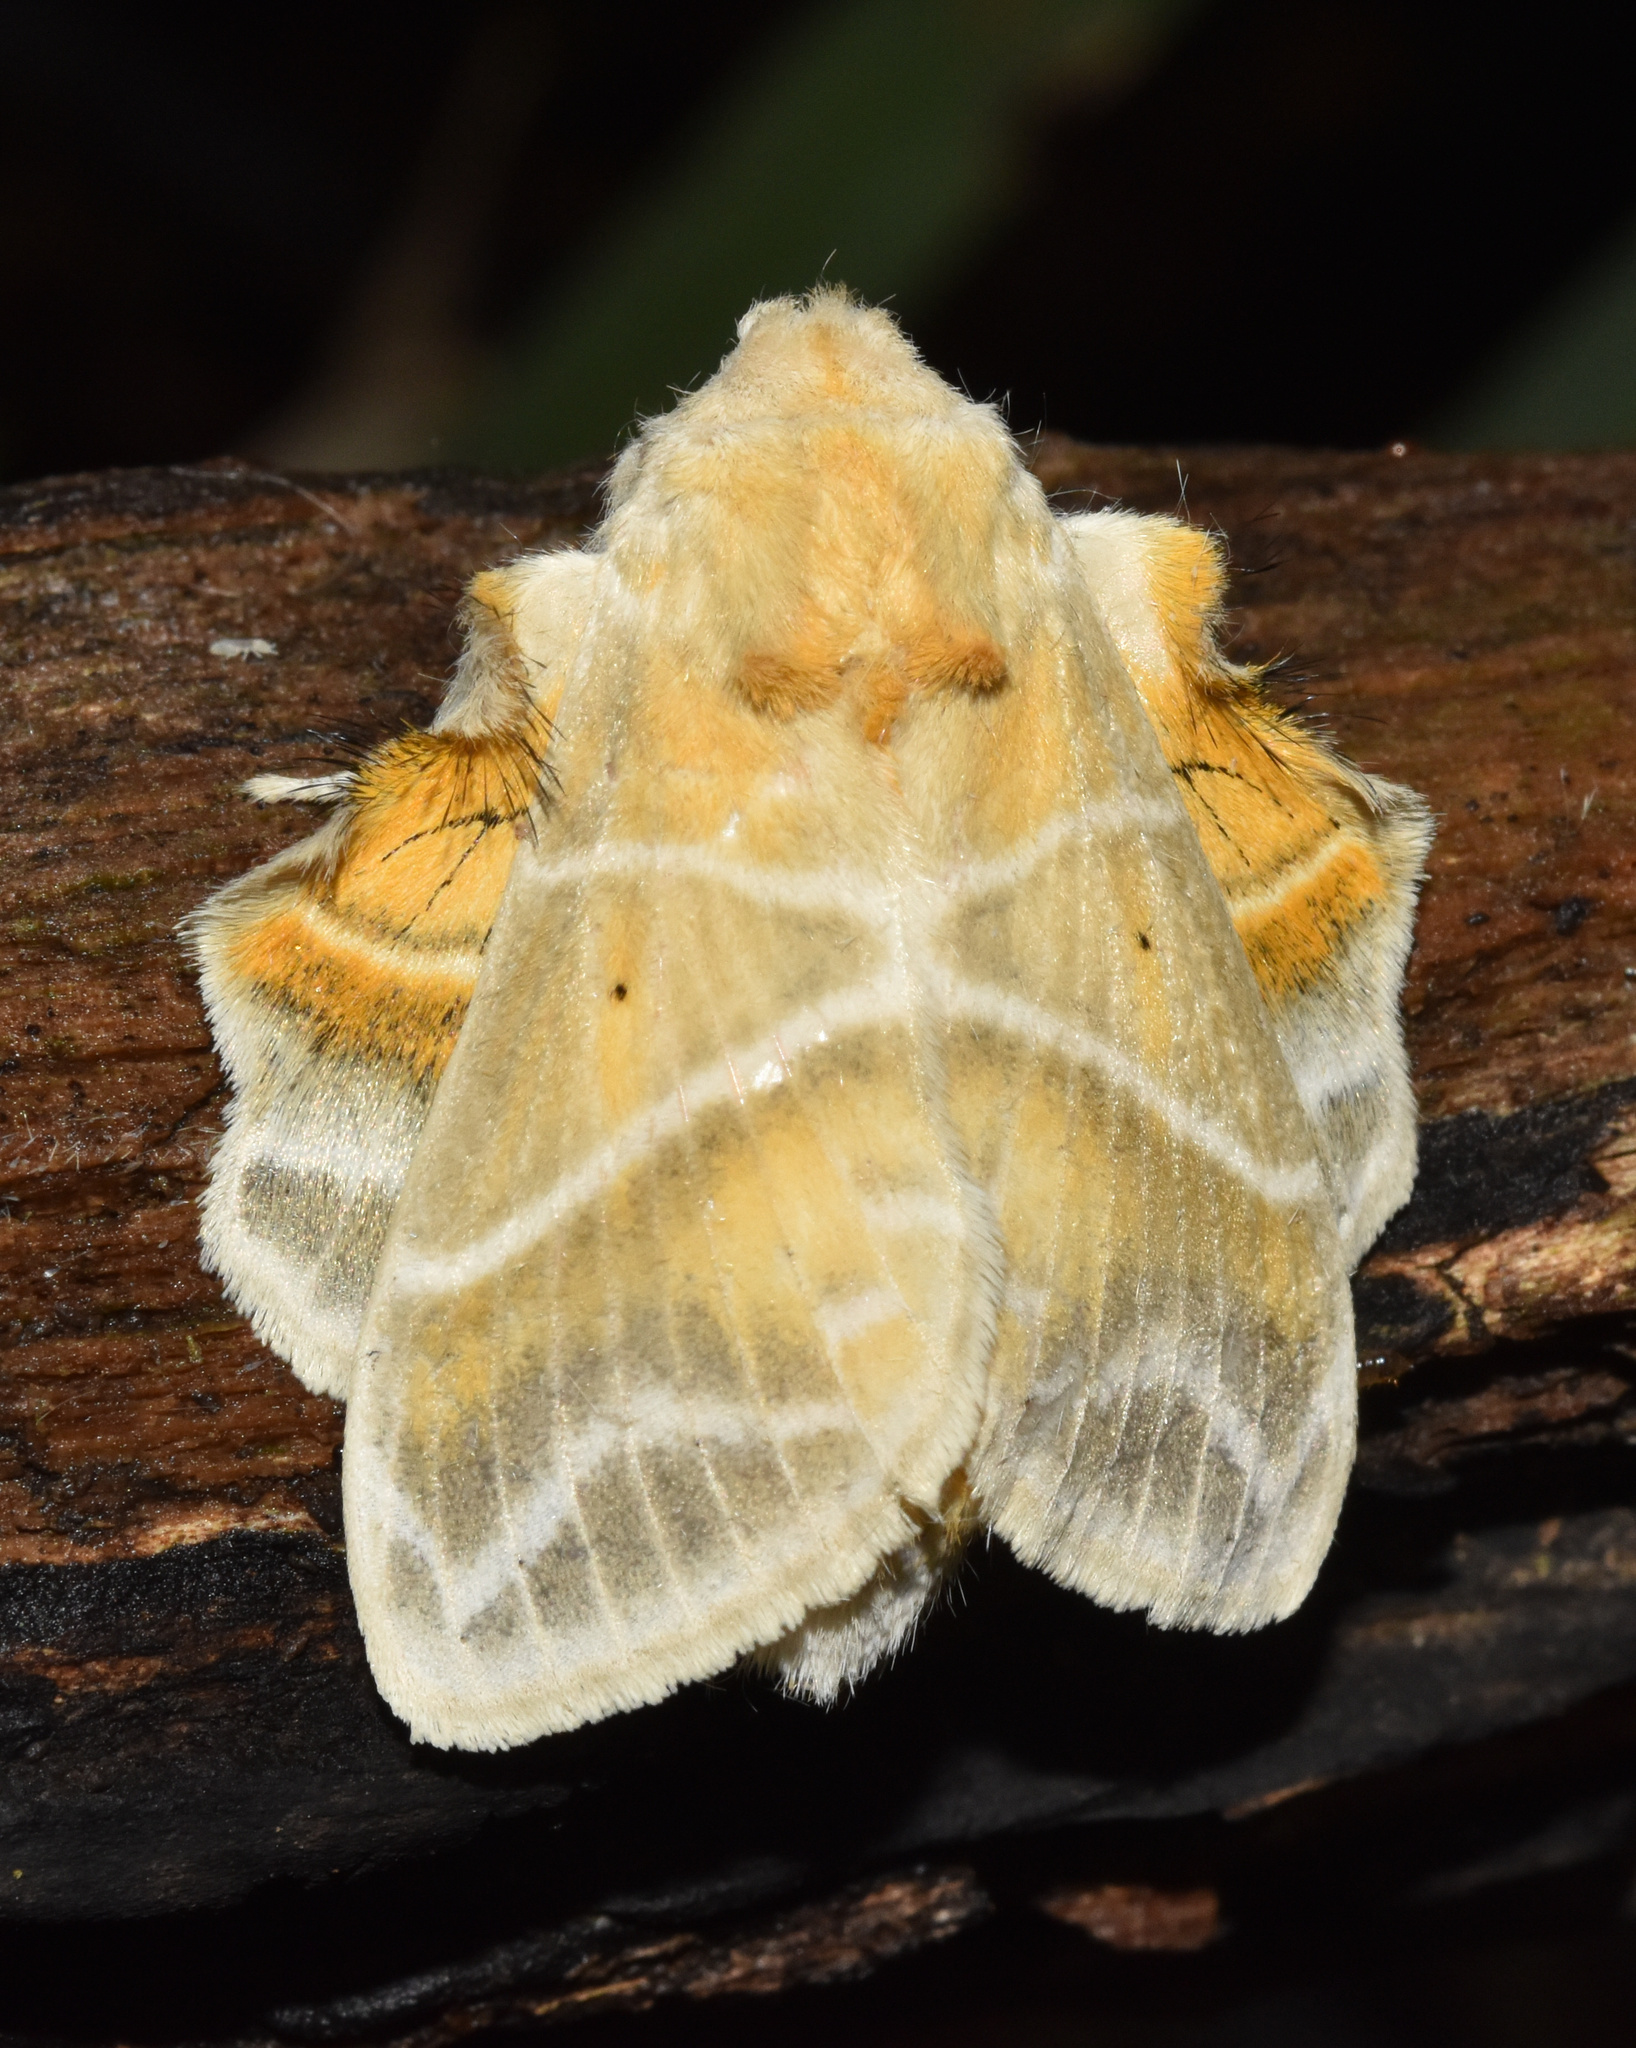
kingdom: Animalia
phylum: Arthropoda
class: Insecta
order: Lepidoptera
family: Lasiocampidae
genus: Eucraera
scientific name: Eucraera salammbo
